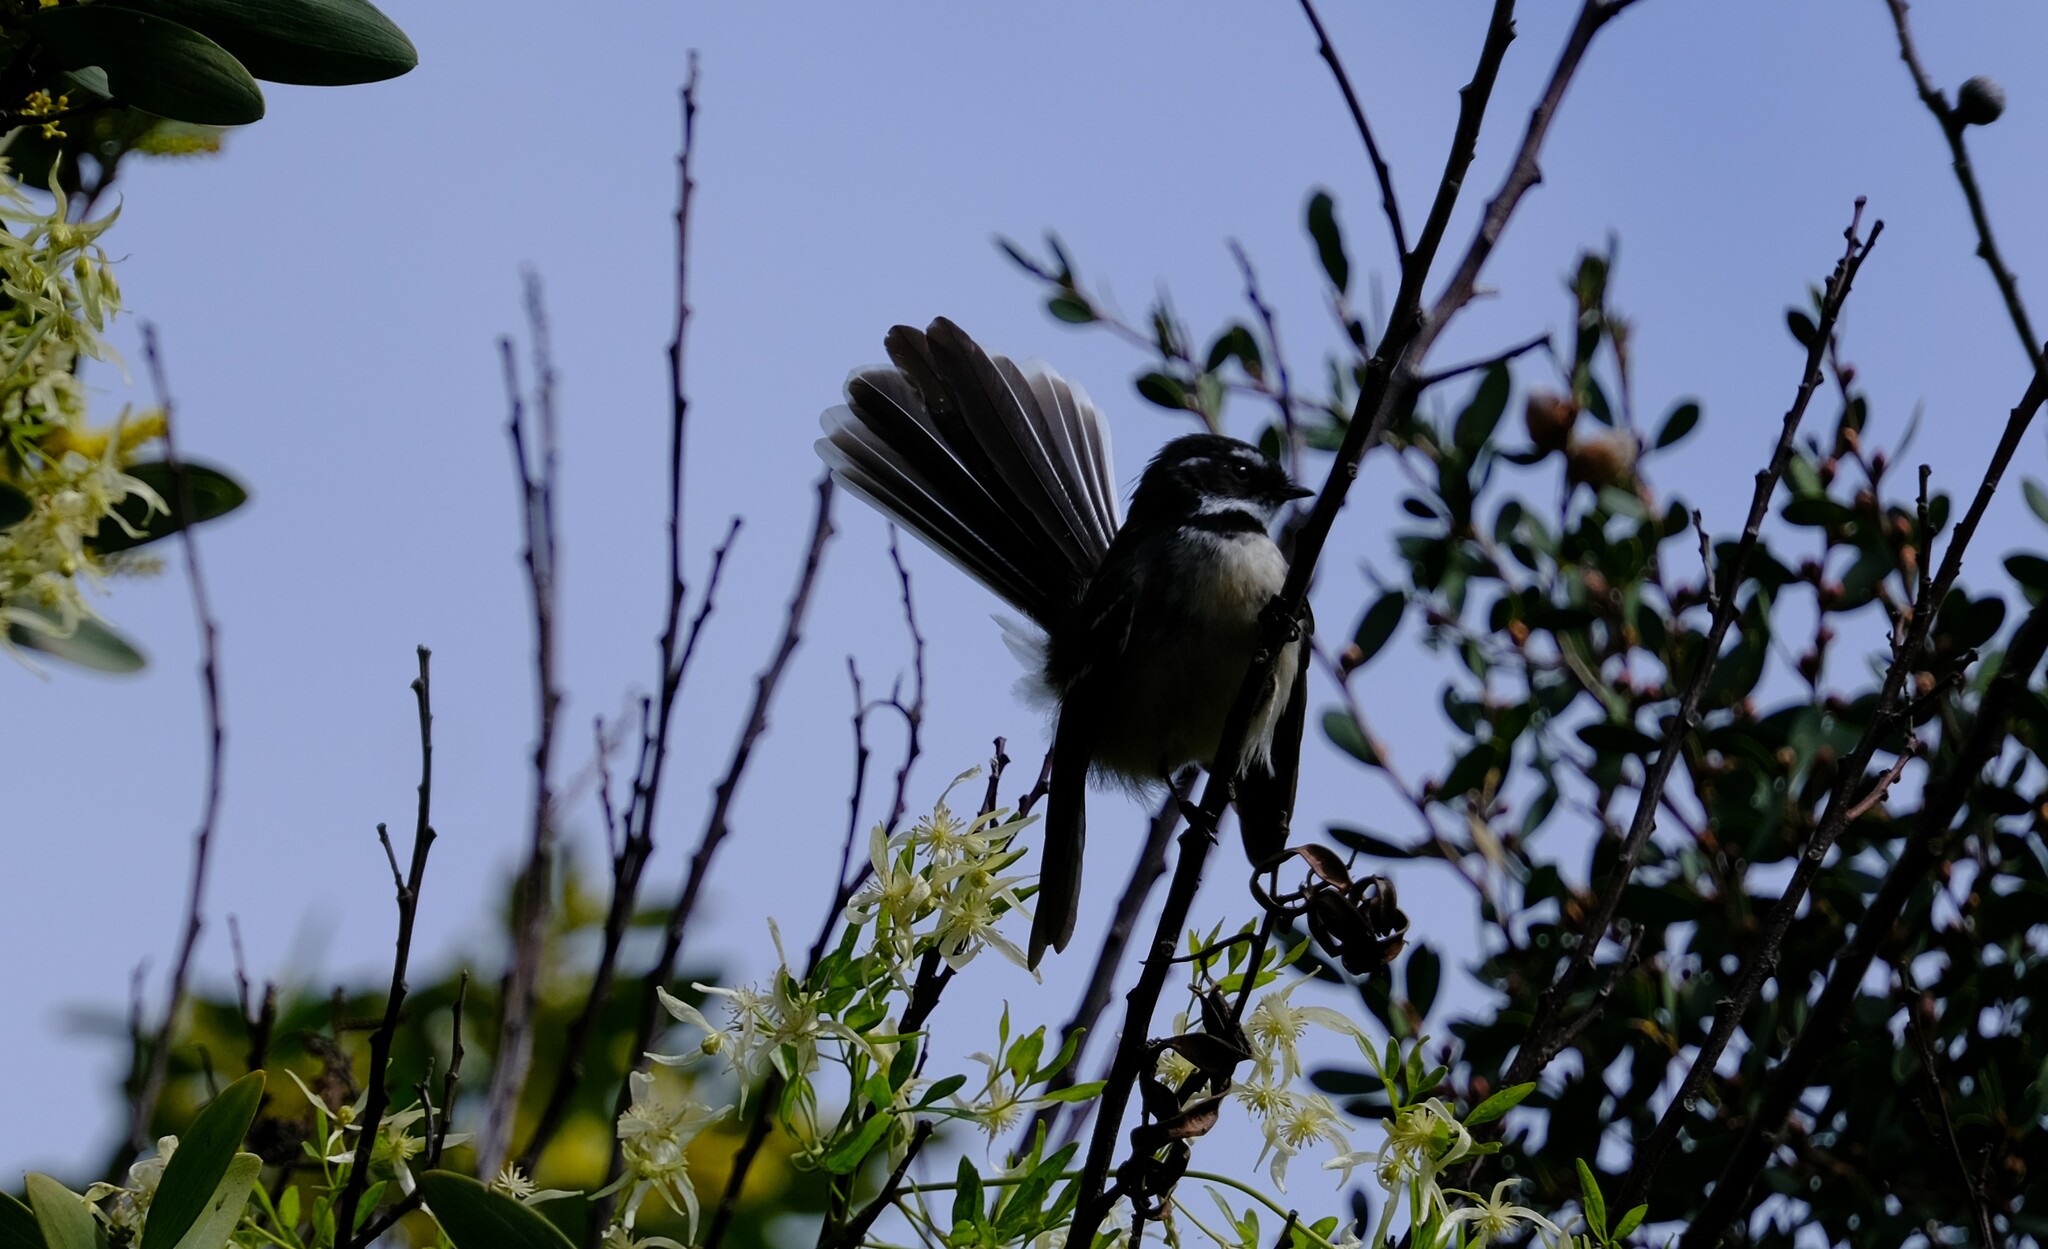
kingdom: Animalia
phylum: Chordata
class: Aves
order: Passeriformes
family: Rhipiduridae
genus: Rhipidura
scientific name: Rhipidura albiscapa
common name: Grey fantail
